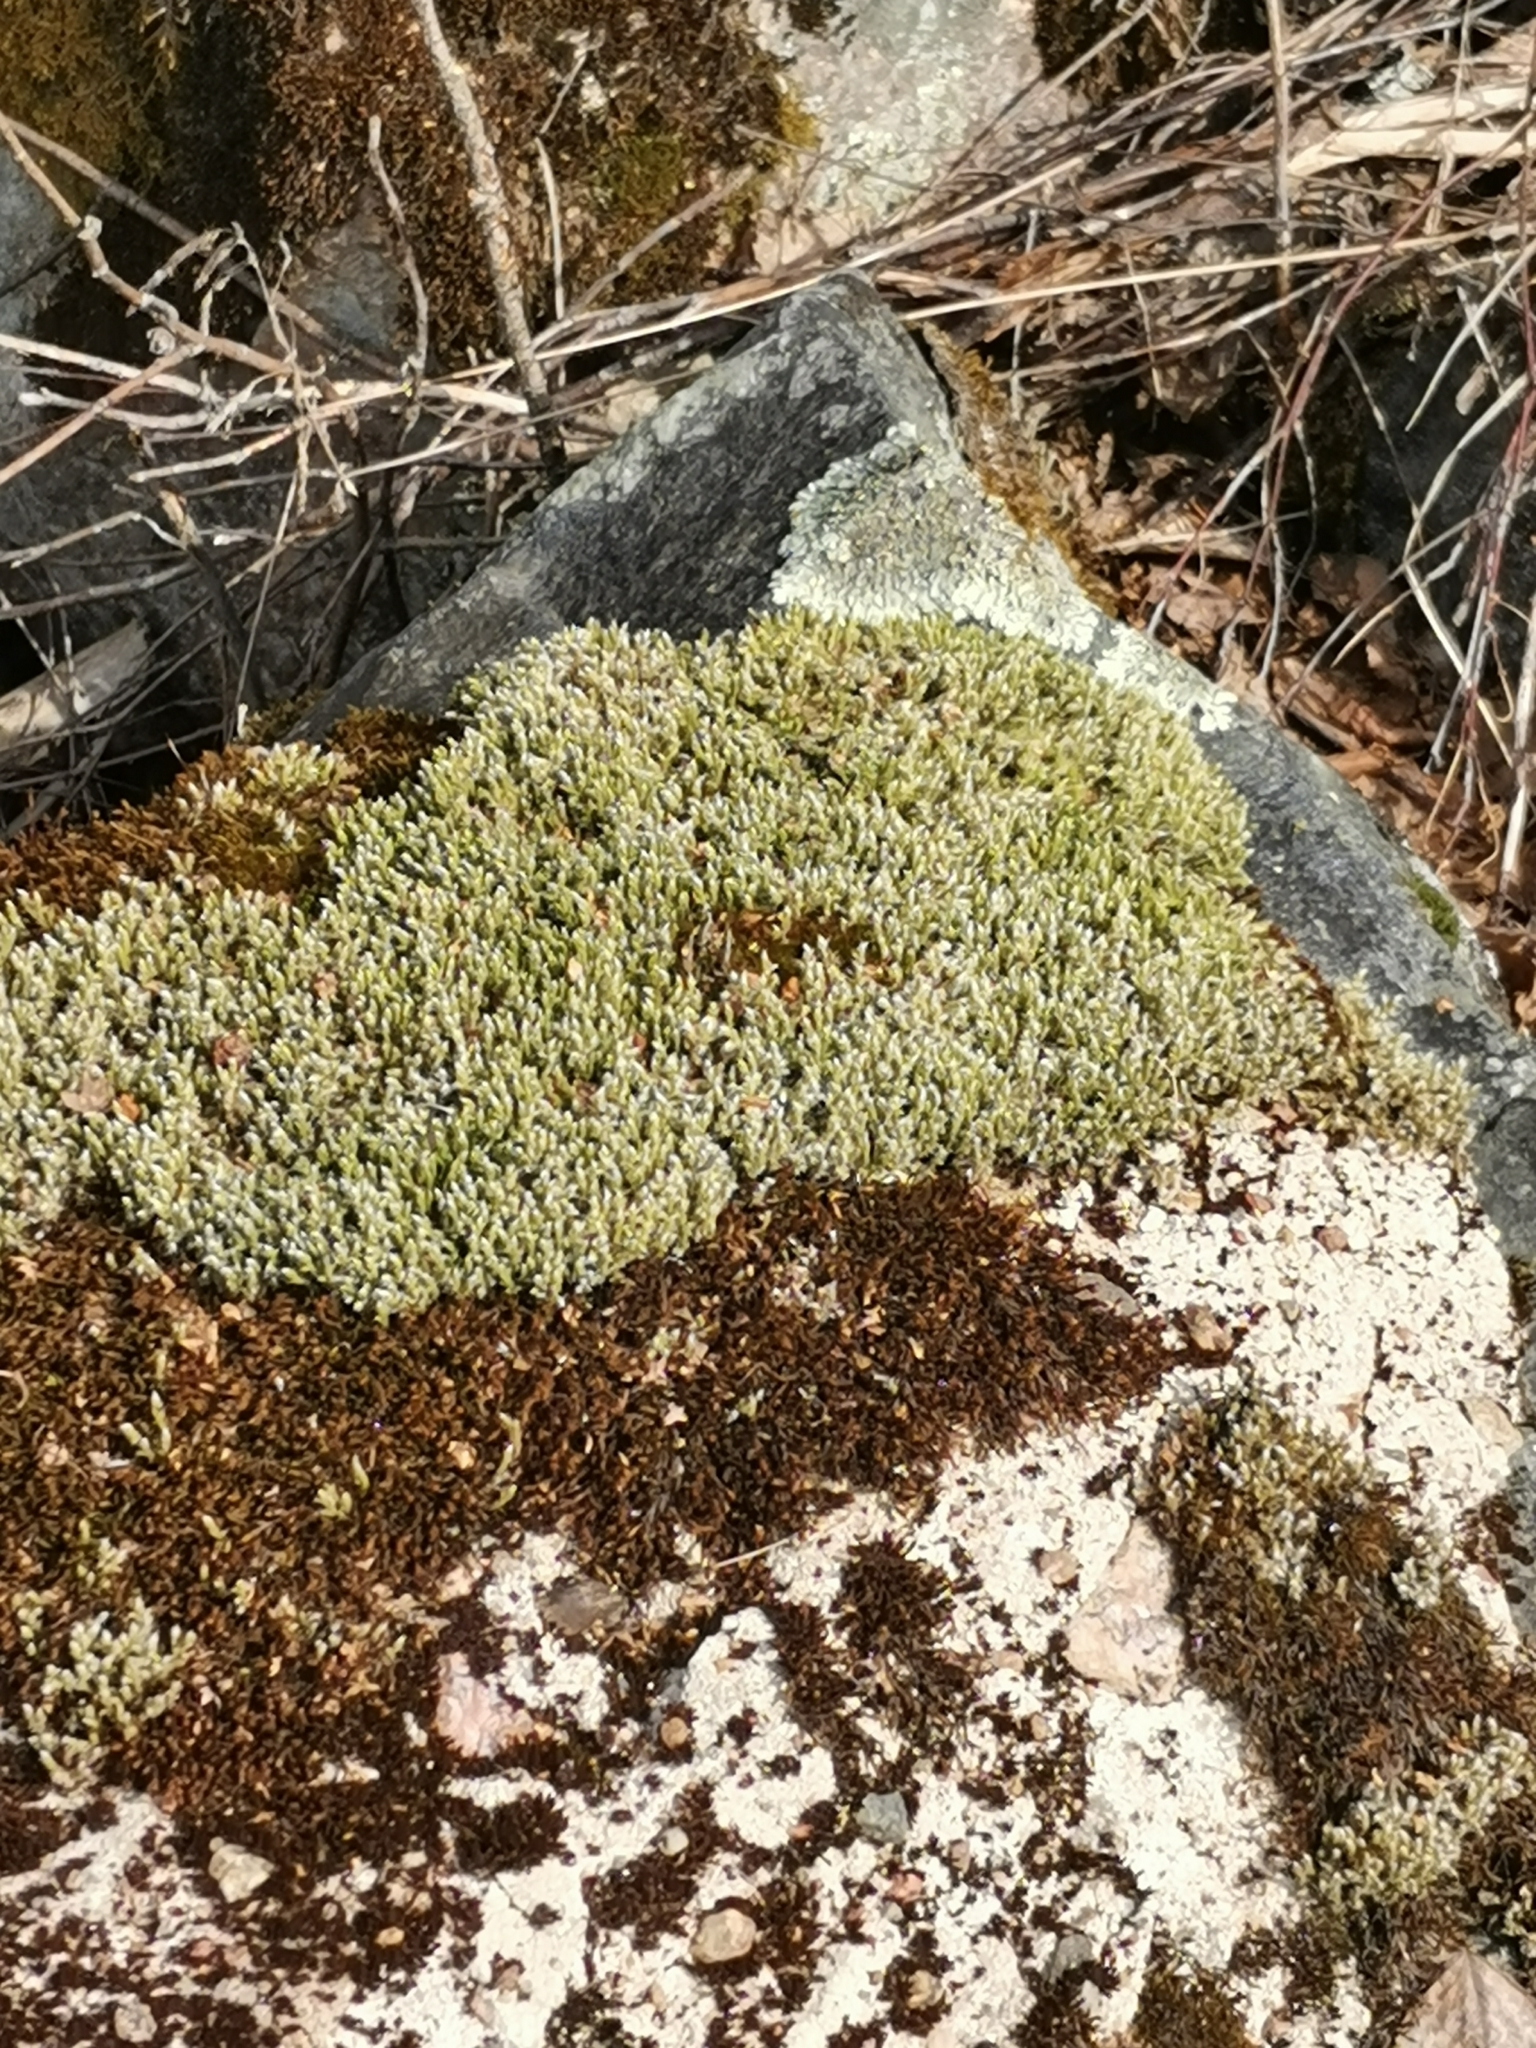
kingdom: Plantae
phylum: Bryophyta
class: Bryopsida
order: Grimmiales
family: Grimmiaceae
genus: Niphotrichum
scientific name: Niphotrichum elongatum
